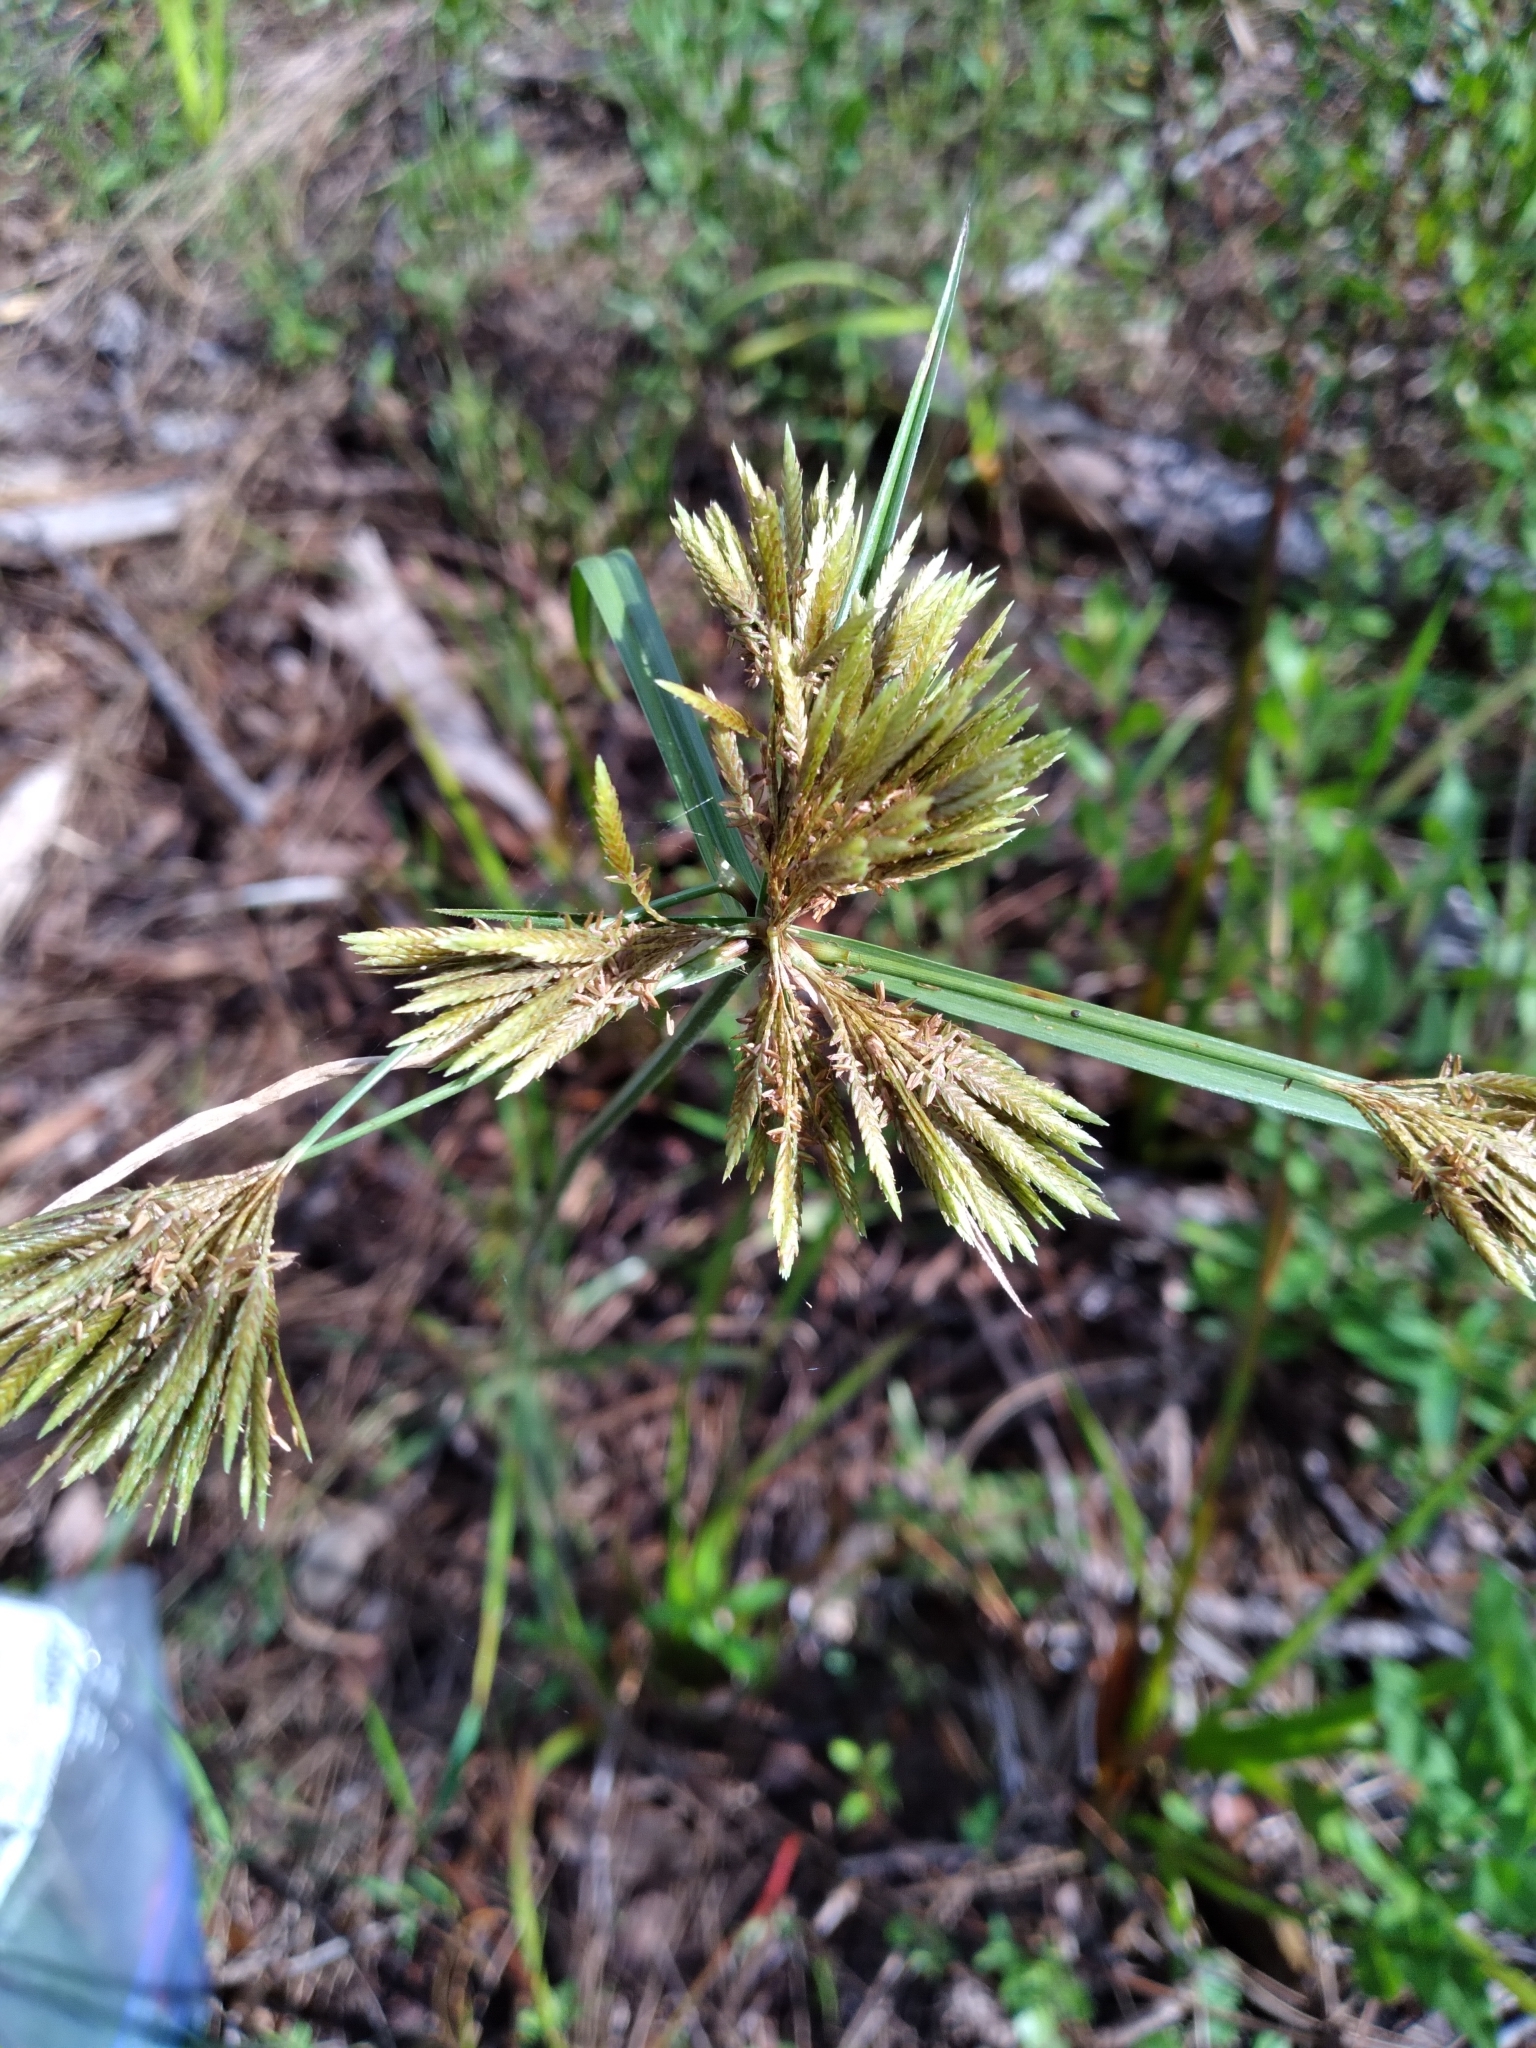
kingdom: Plantae
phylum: Tracheophyta
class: Liliopsida
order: Poales
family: Cyperaceae
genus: Cyperus
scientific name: Cyperus polystachyos
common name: Bunchy flat sedge
